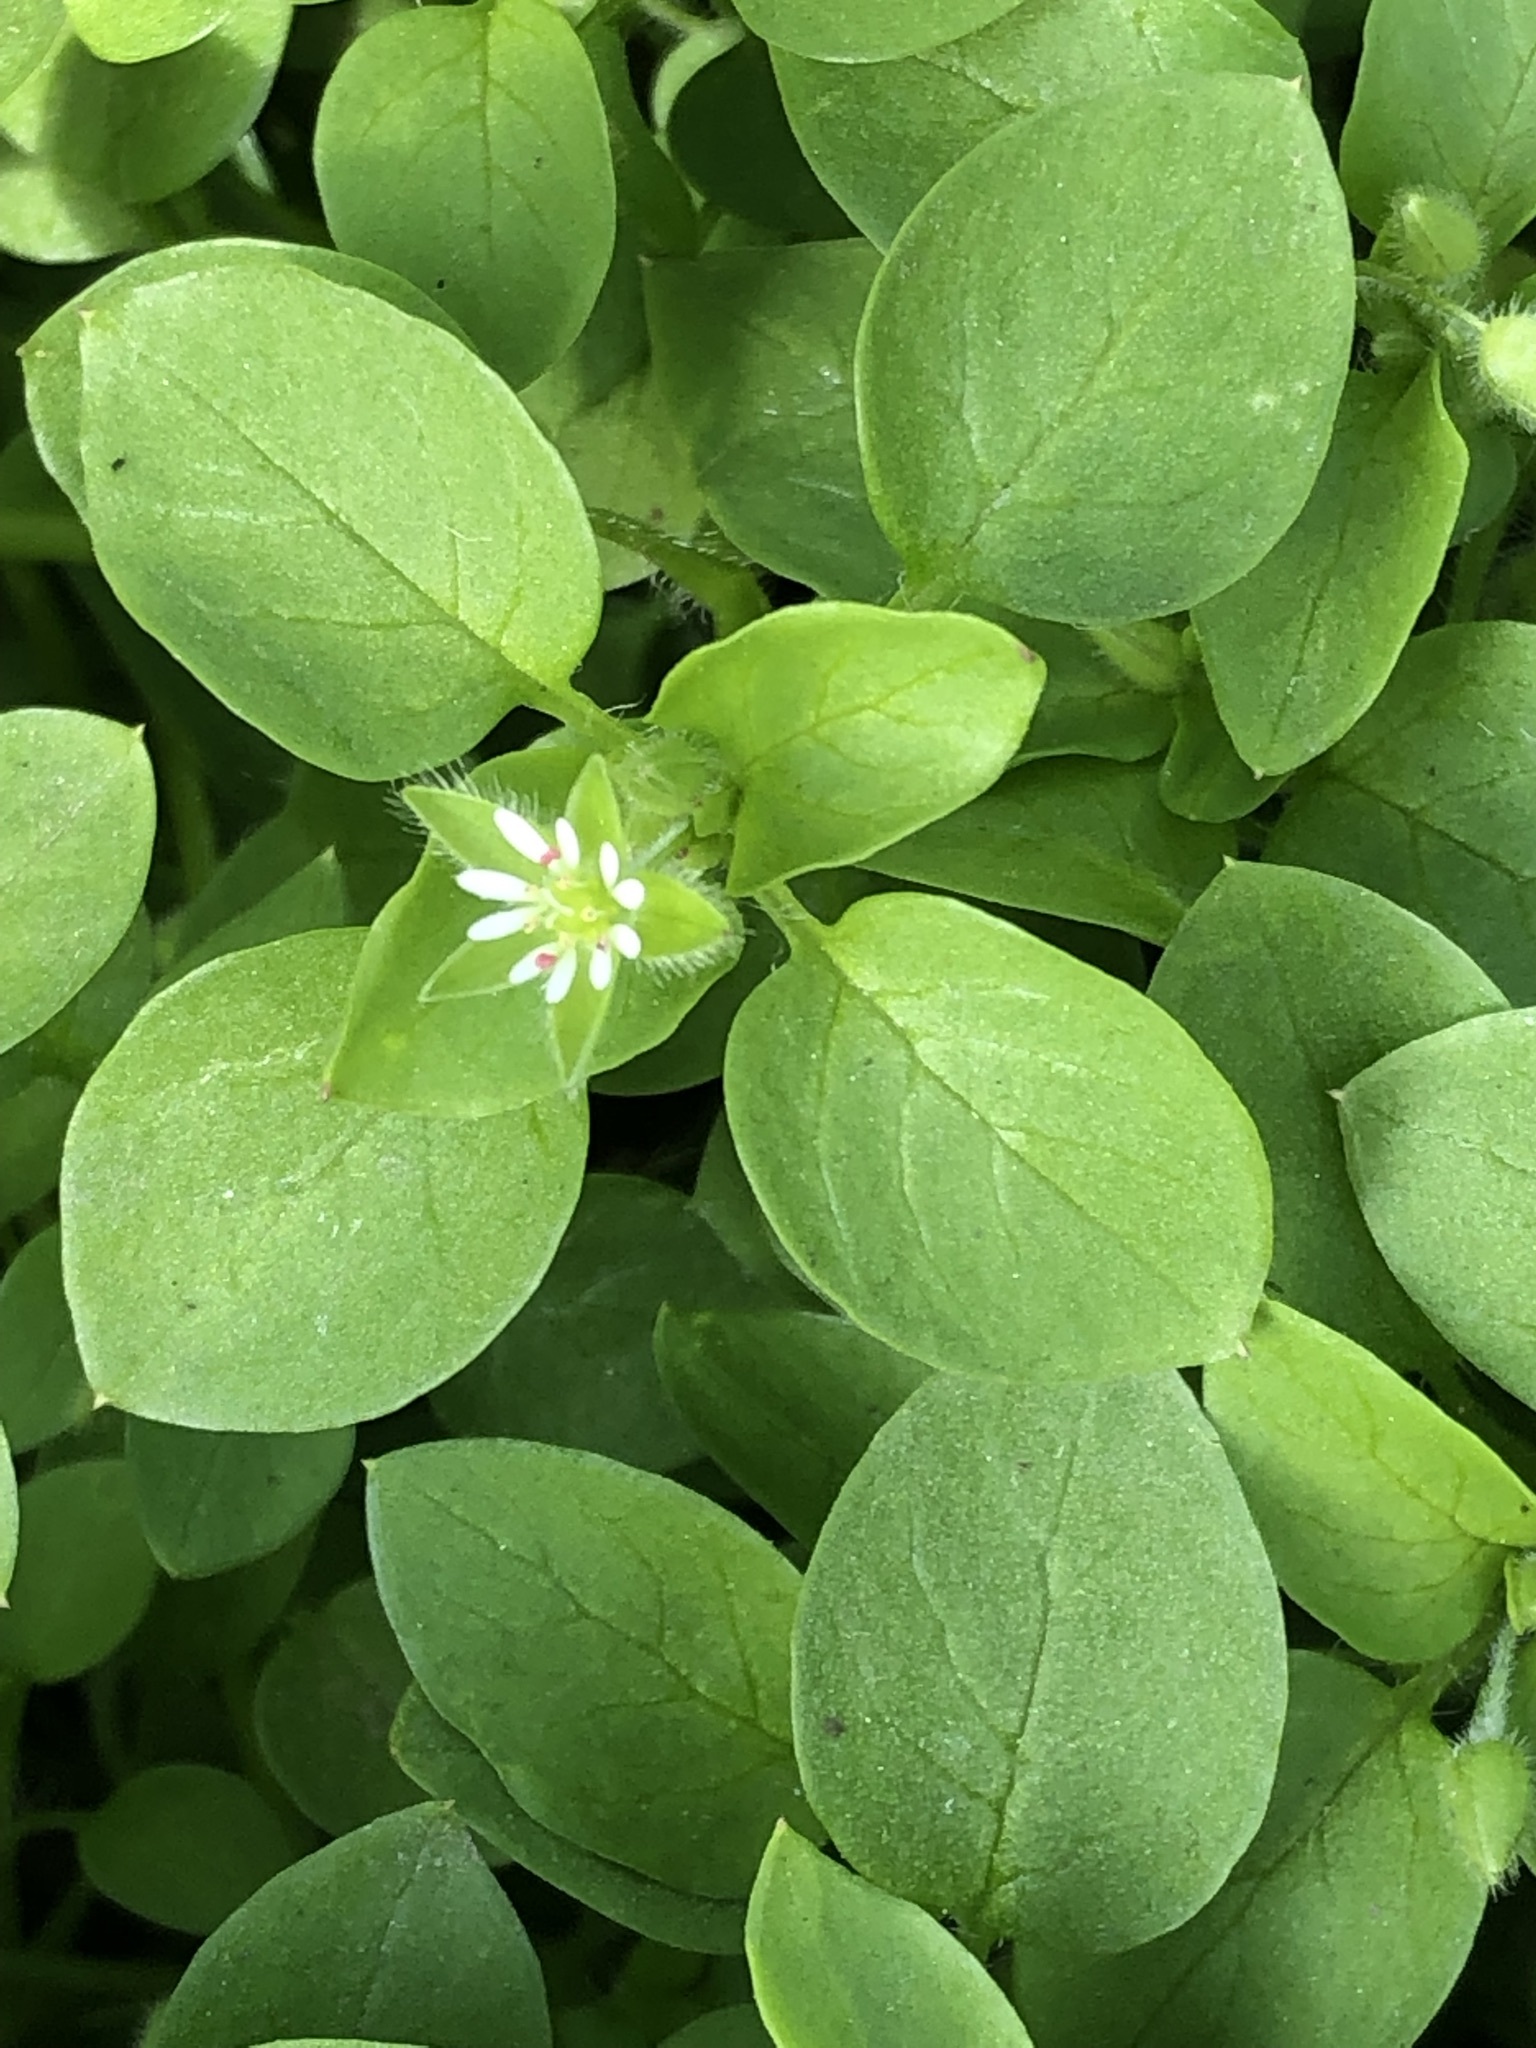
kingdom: Plantae
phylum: Tracheophyta
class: Magnoliopsida
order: Oxalidales
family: Oxalidaceae
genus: Oxalis
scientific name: Oxalis latifolia
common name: Garden pink-sorrel
